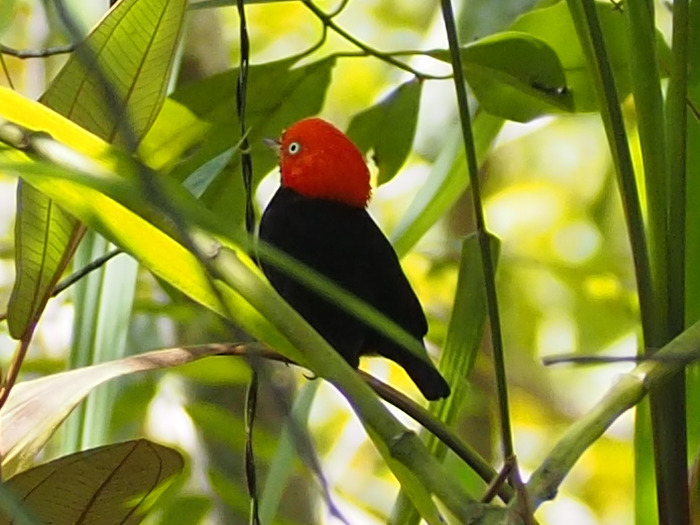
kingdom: Animalia
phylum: Chordata
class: Aves
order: Passeriformes
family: Pipridae
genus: Pipra
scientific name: Pipra mentalis
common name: Red-capped manakin
